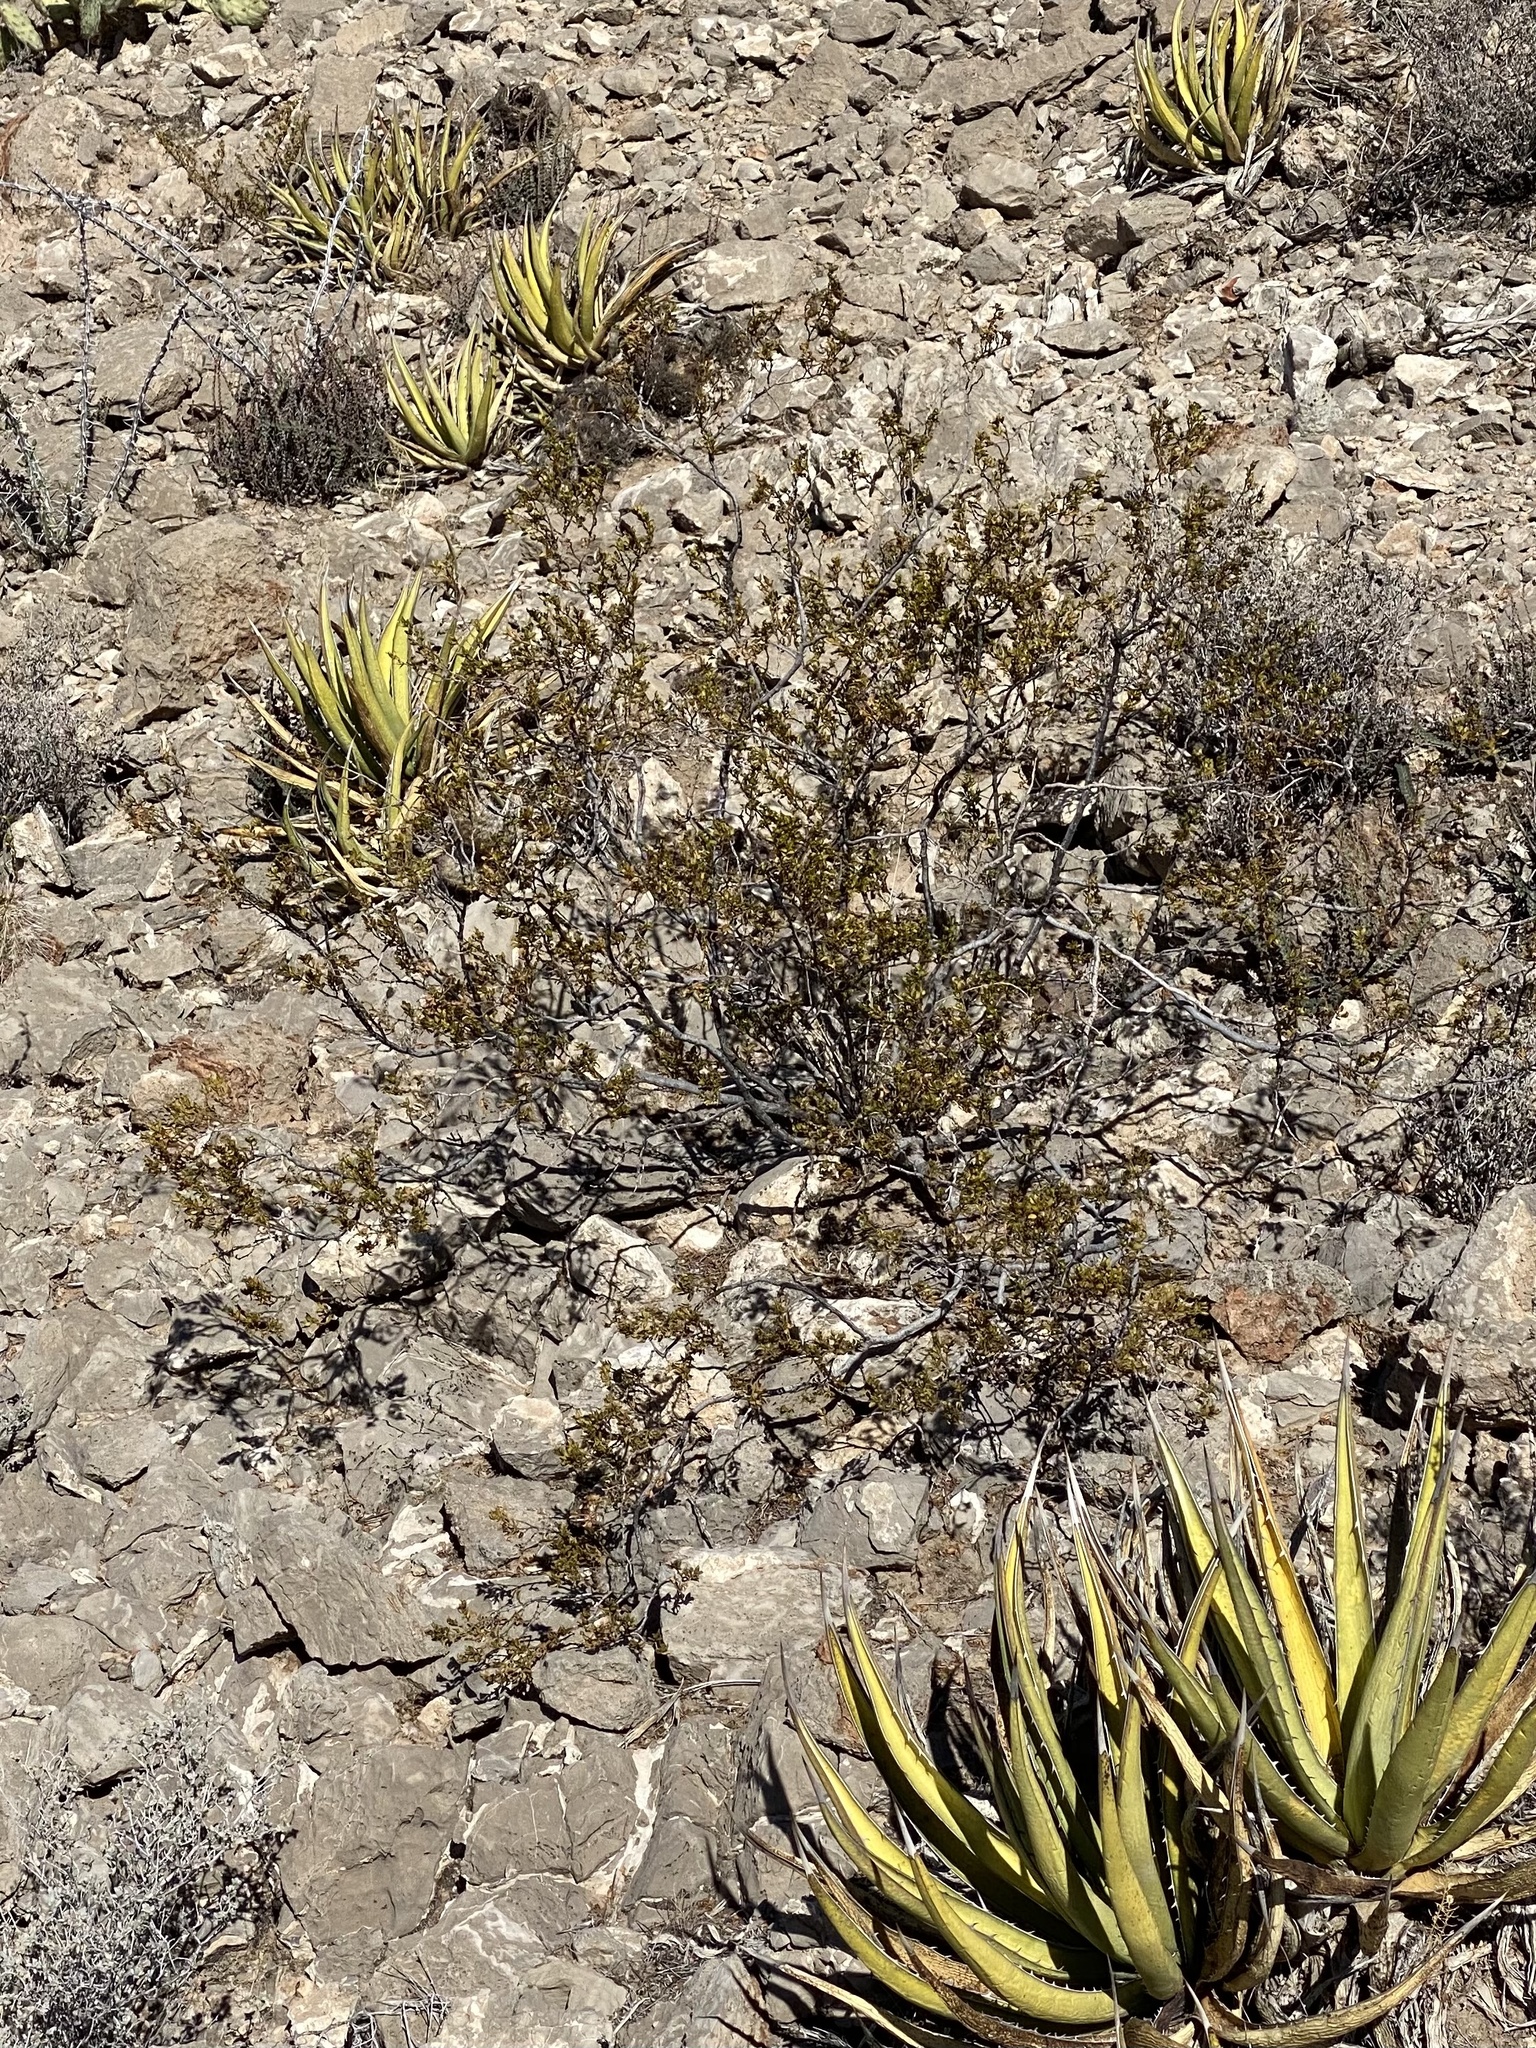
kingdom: Plantae
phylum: Tracheophyta
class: Magnoliopsida
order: Zygophyllales
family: Zygophyllaceae
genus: Larrea
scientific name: Larrea tridentata
